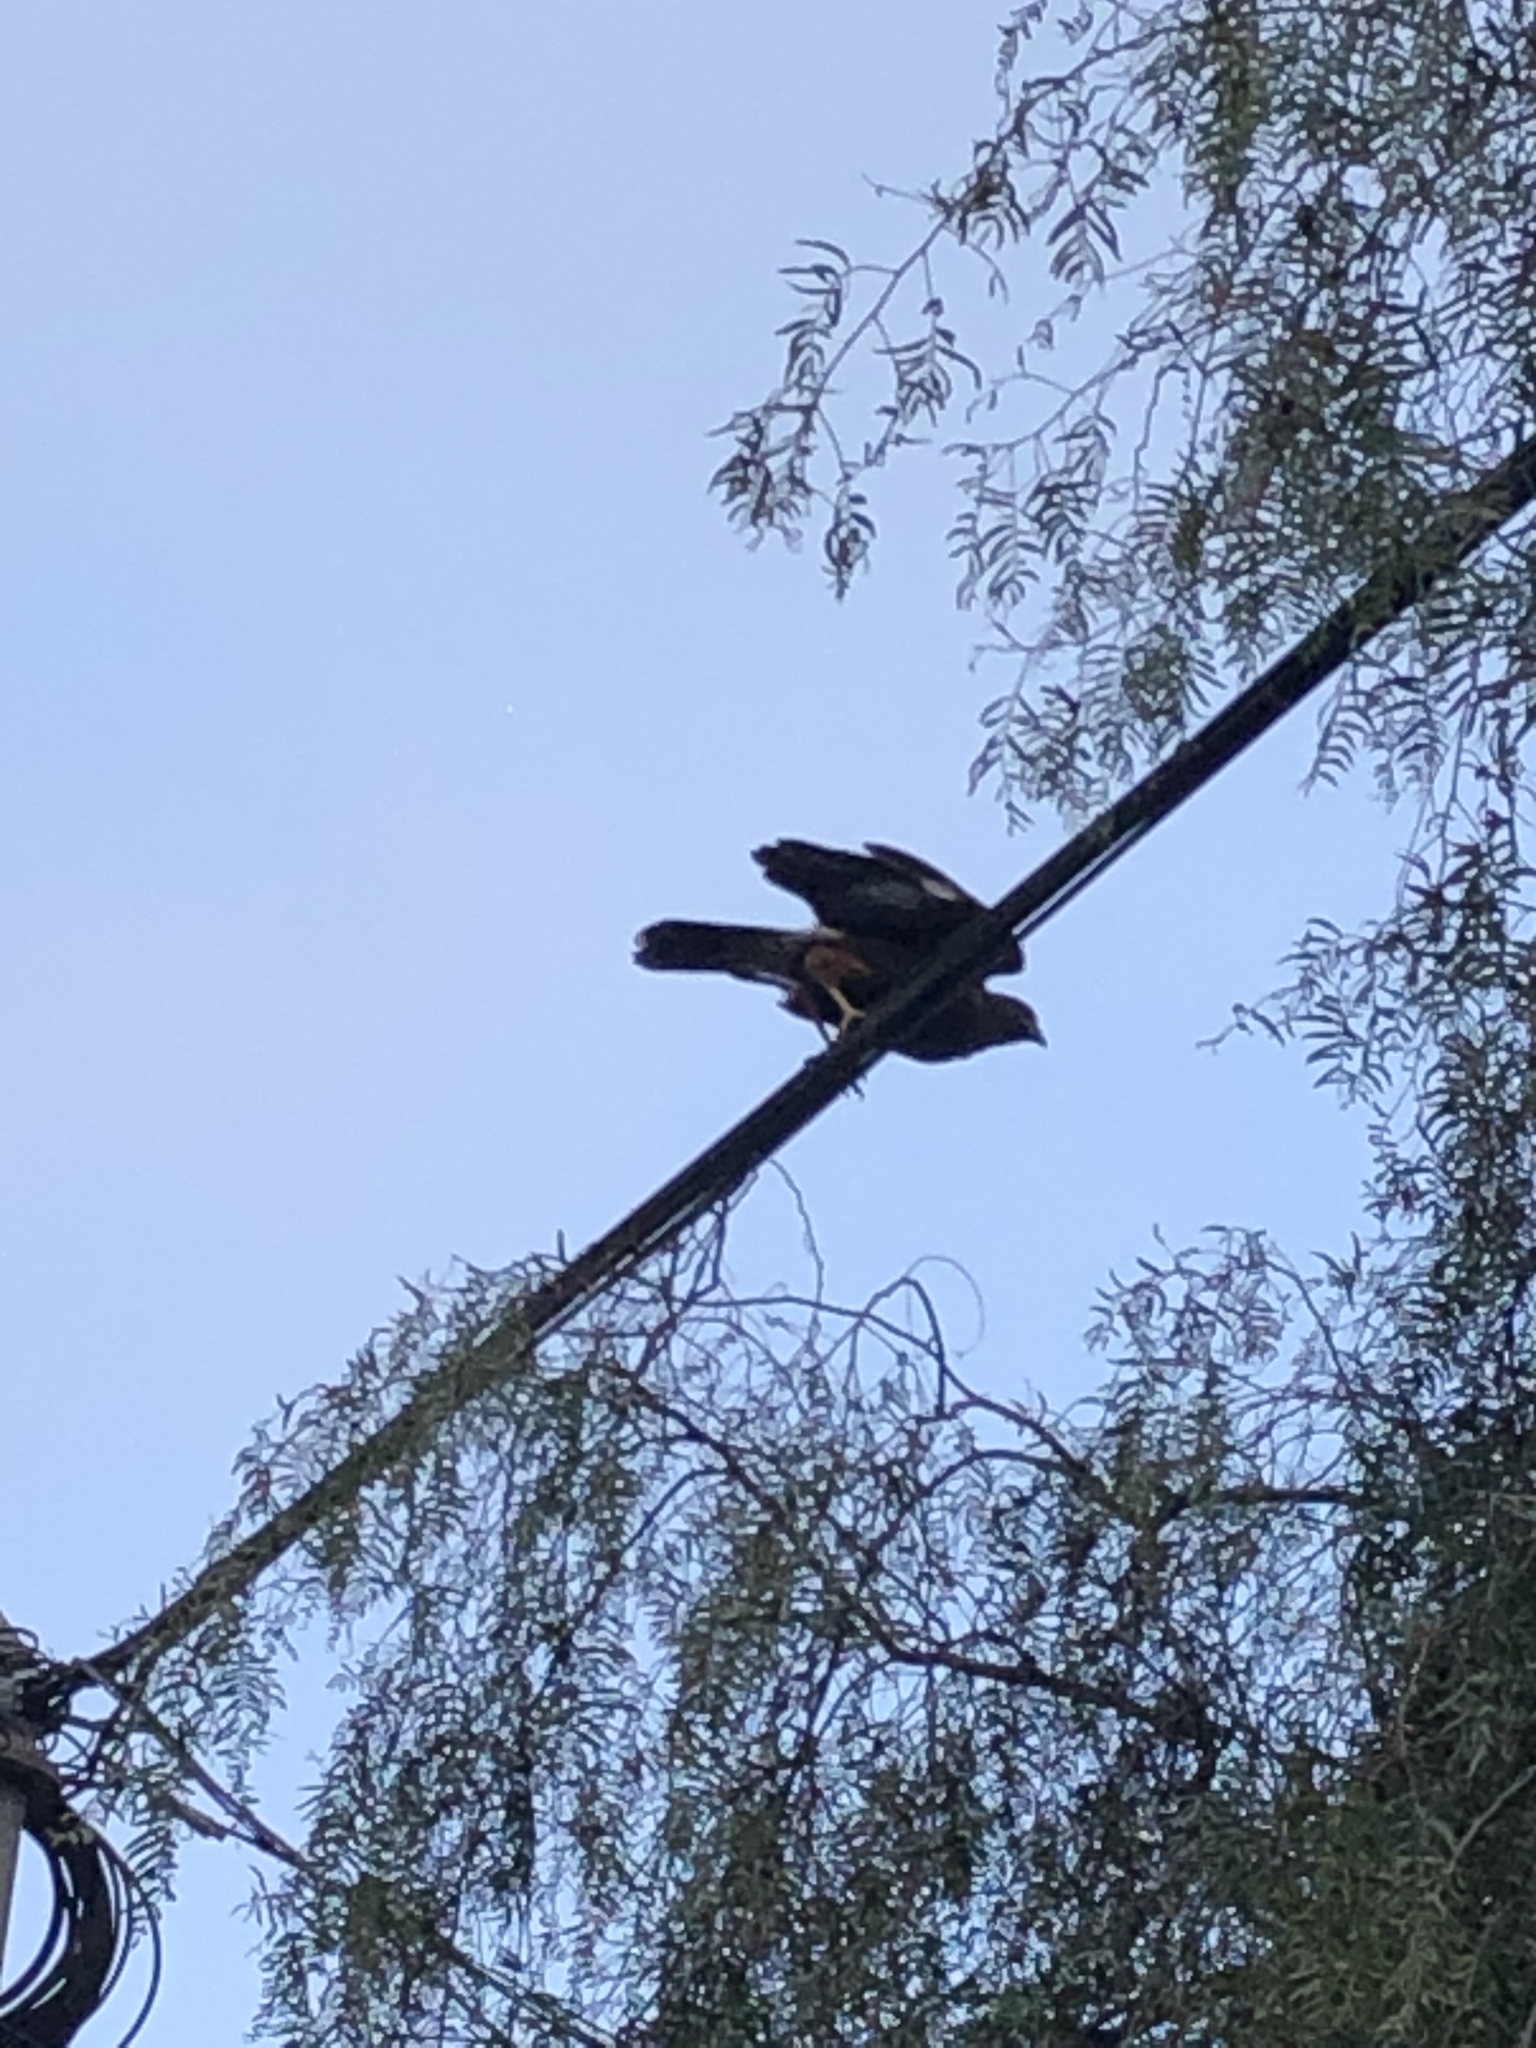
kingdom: Animalia
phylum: Chordata
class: Aves
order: Accipitriformes
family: Accipitridae
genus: Parabuteo
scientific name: Parabuteo unicinctus
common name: Harris's hawk
